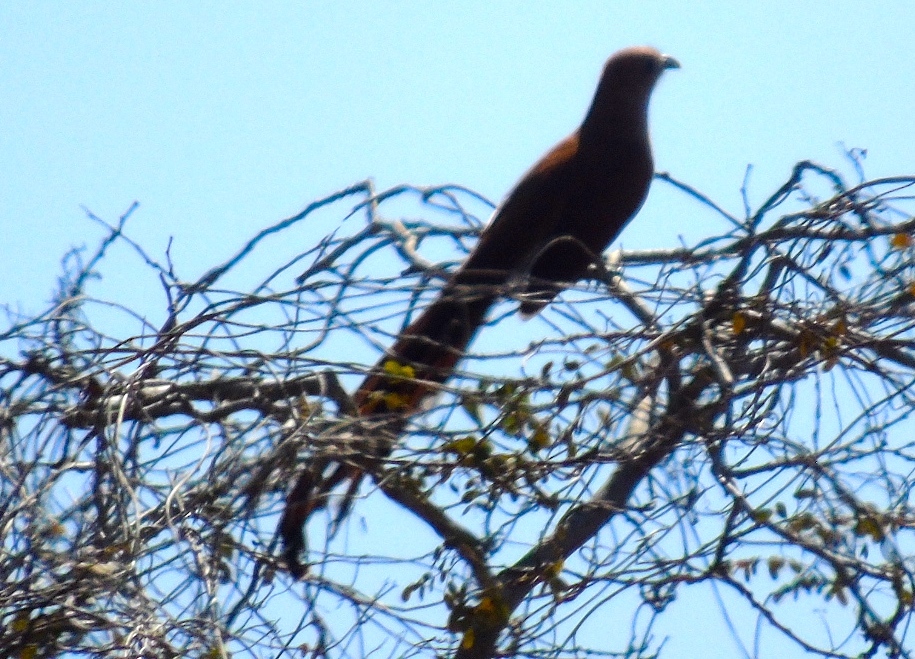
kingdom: Animalia
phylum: Chordata
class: Aves
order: Cuculiformes
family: Cuculidae
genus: Piaya
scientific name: Piaya cayana
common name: Squirrel cuckoo
